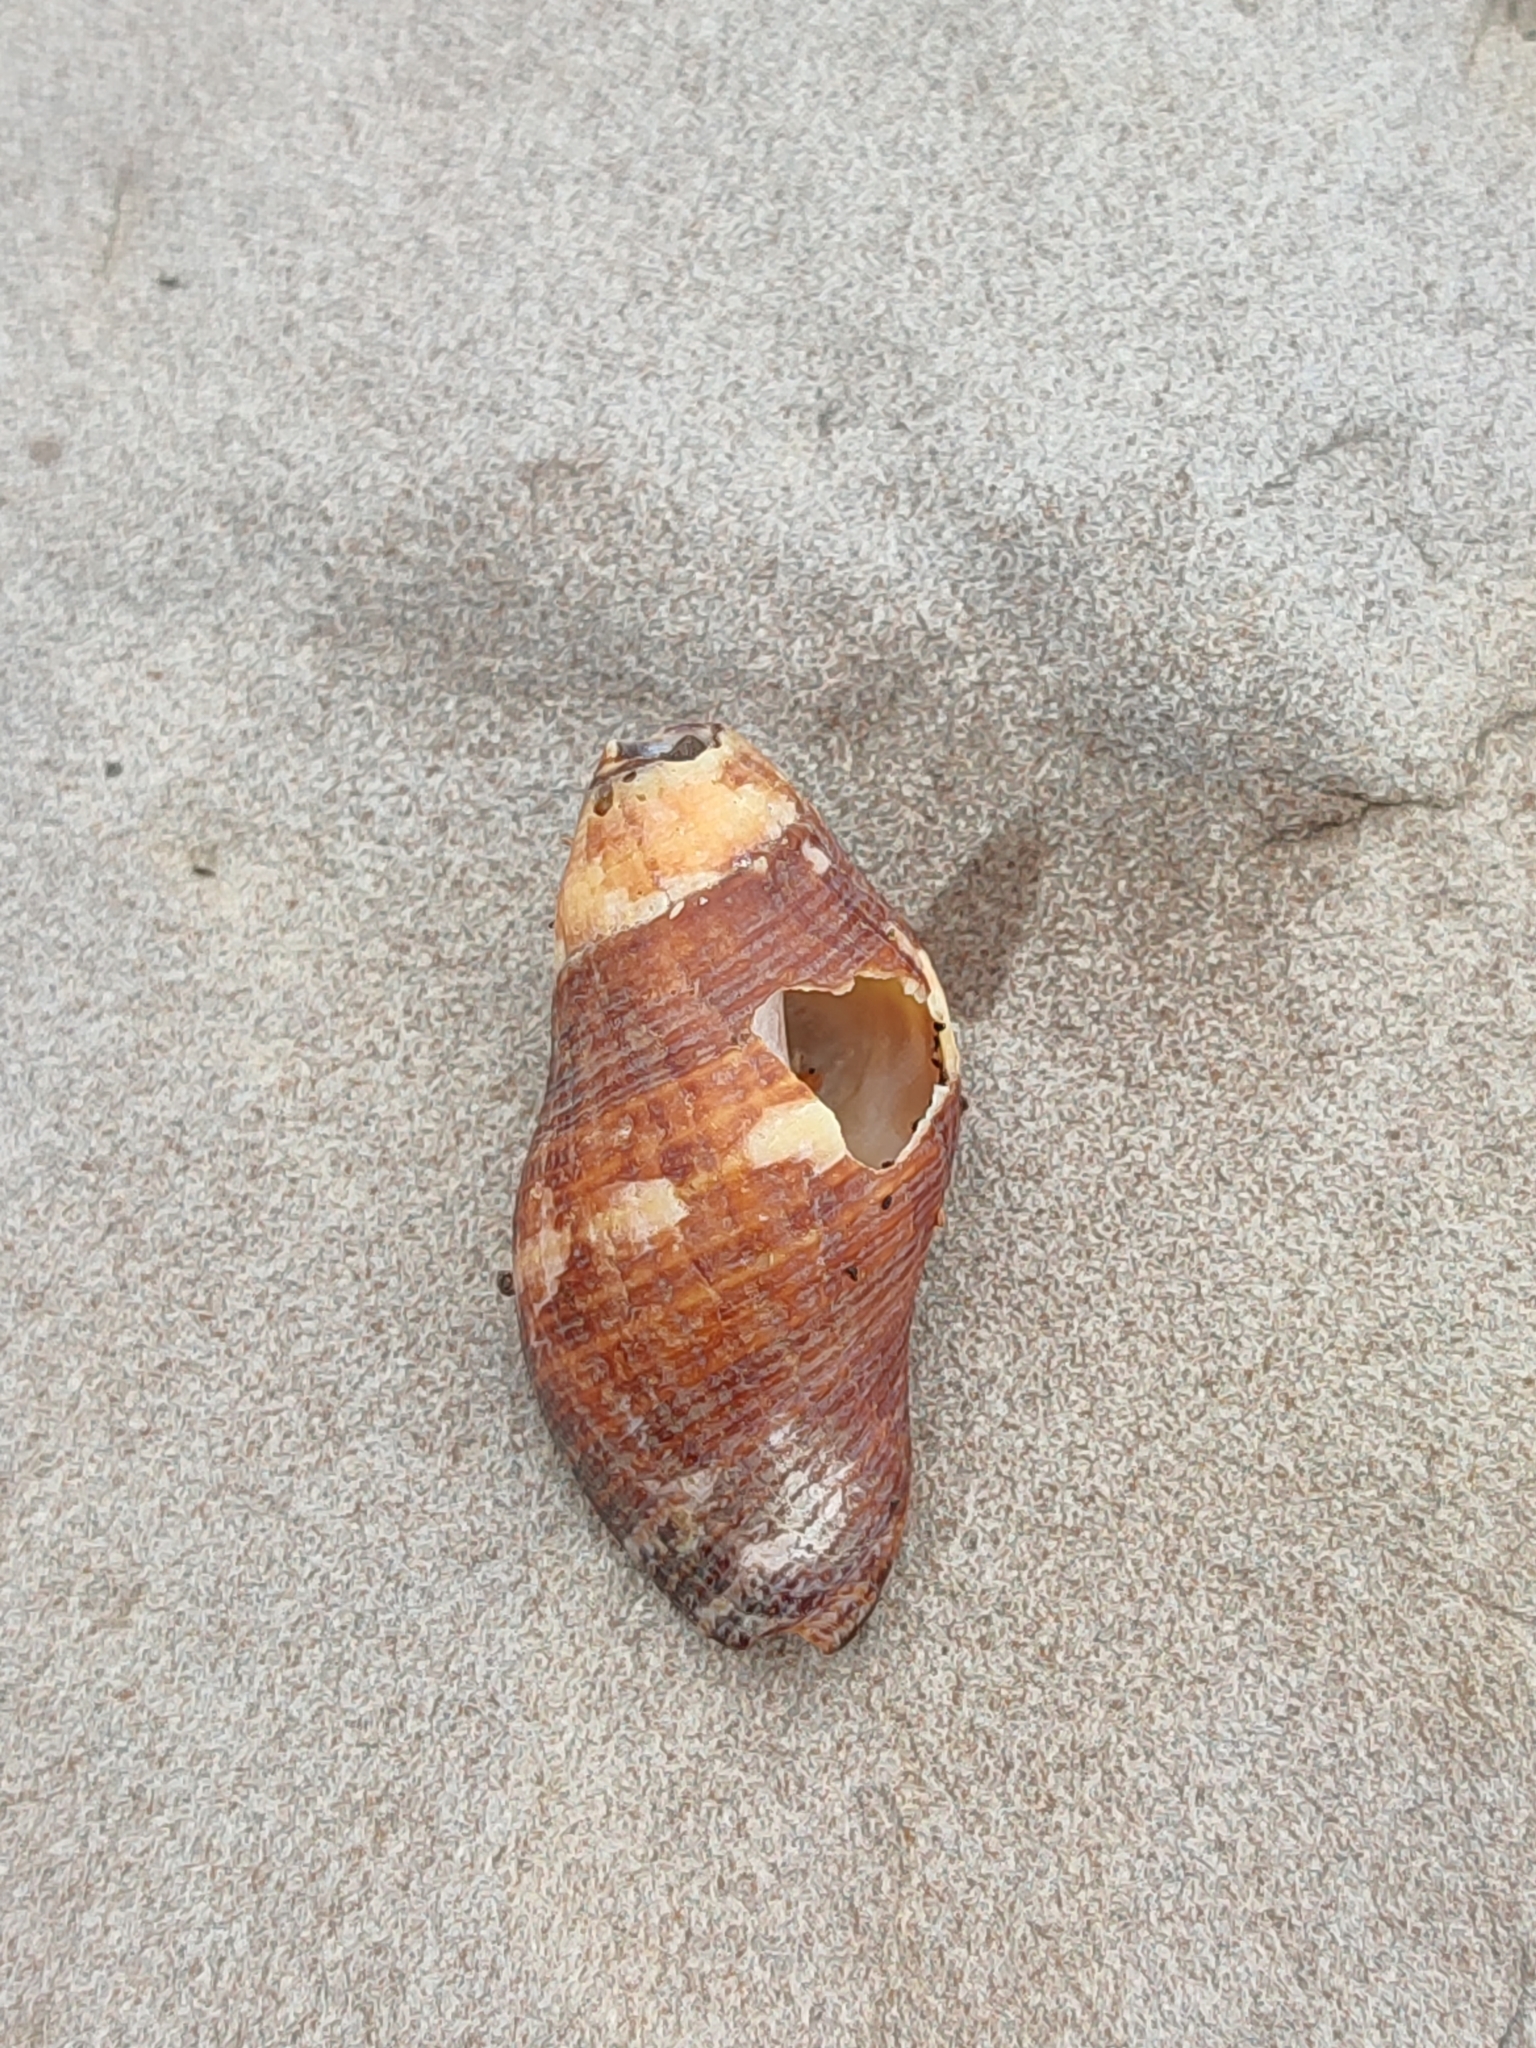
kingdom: Animalia
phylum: Mollusca
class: Gastropoda
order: Neogastropoda
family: Muricidae
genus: Nassa
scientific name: Nassa serta
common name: Sertum rock shell
